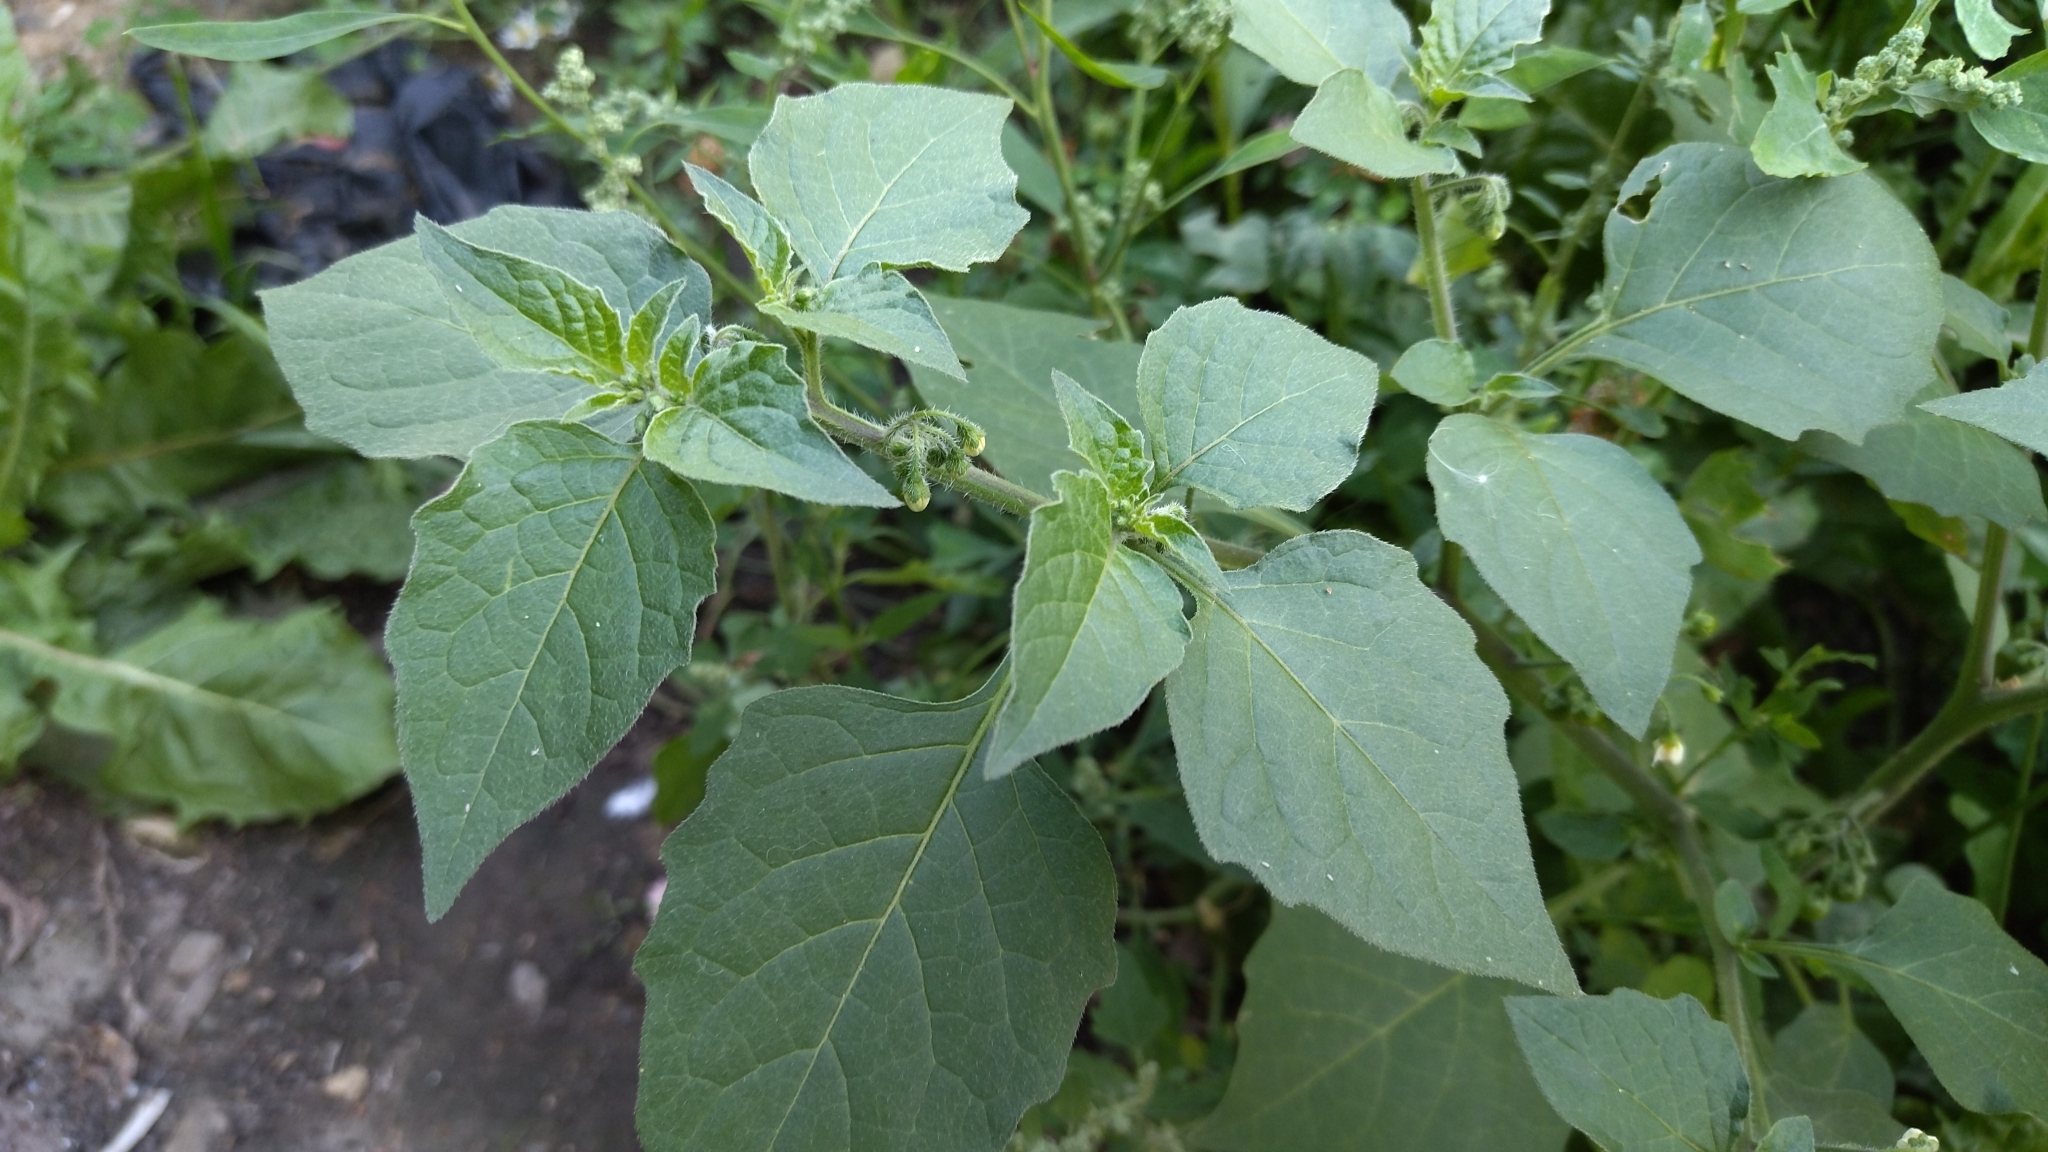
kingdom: Plantae
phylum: Tracheophyta
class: Magnoliopsida
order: Solanales
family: Solanaceae
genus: Solanum
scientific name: Solanum nigrum
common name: Black nightshade
